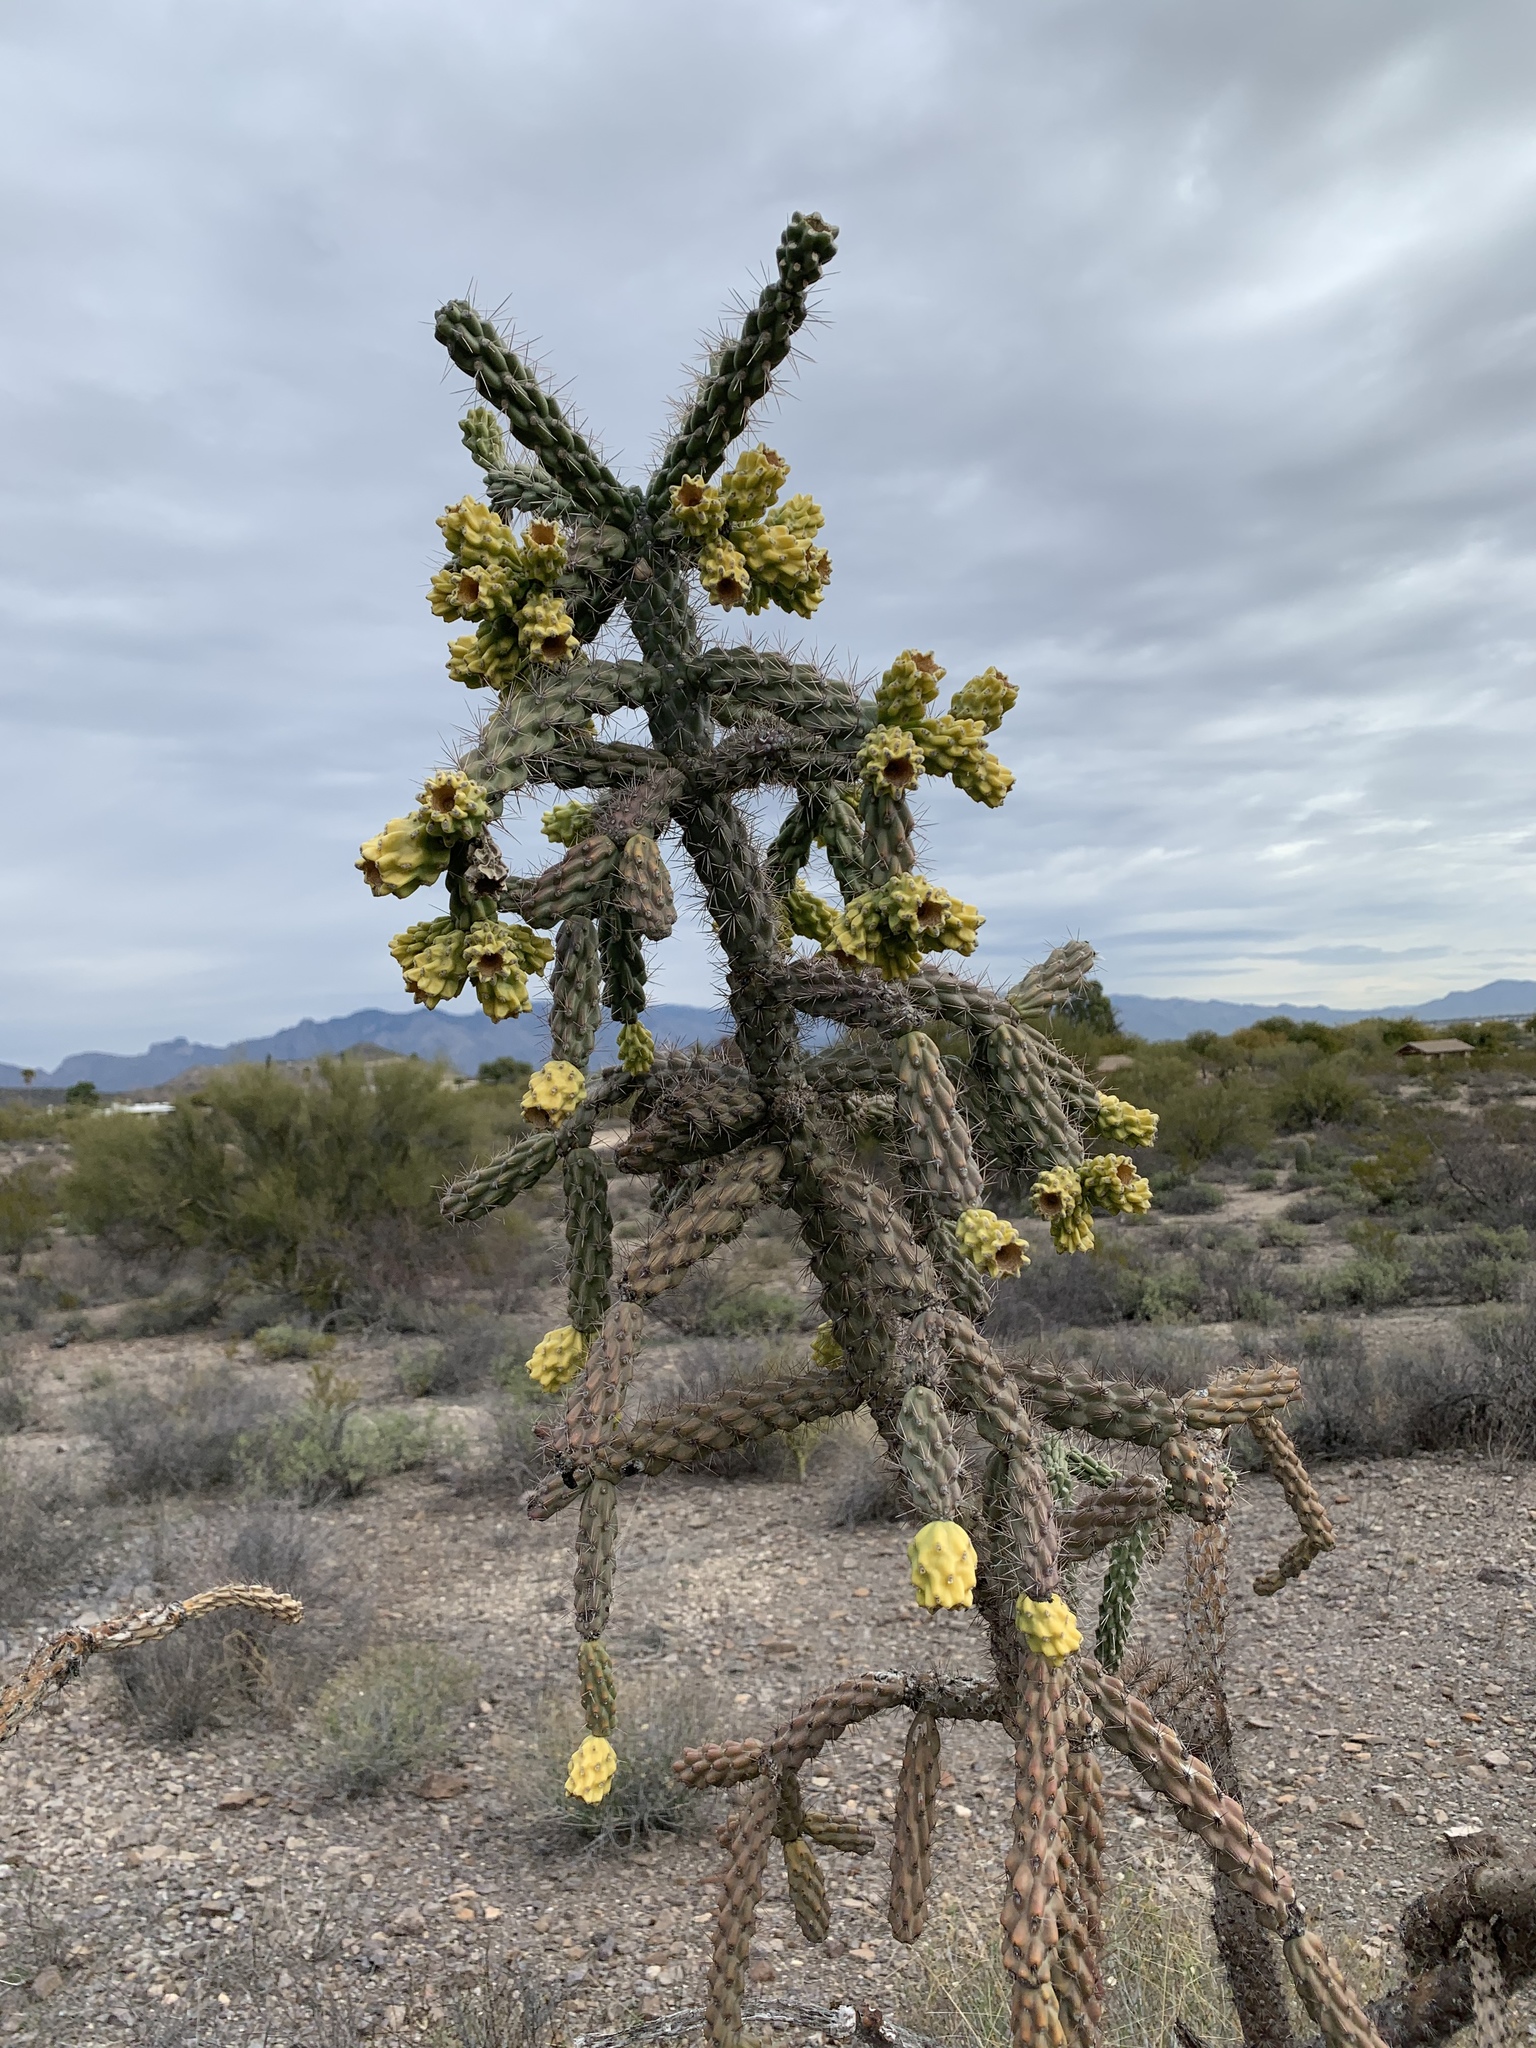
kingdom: Plantae
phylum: Tracheophyta
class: Magnoliopsida
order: Caryophyllales
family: Cactaceae
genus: Cylindropuntia
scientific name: Cylindropuntia imbricata
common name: Candelabrum cactus
